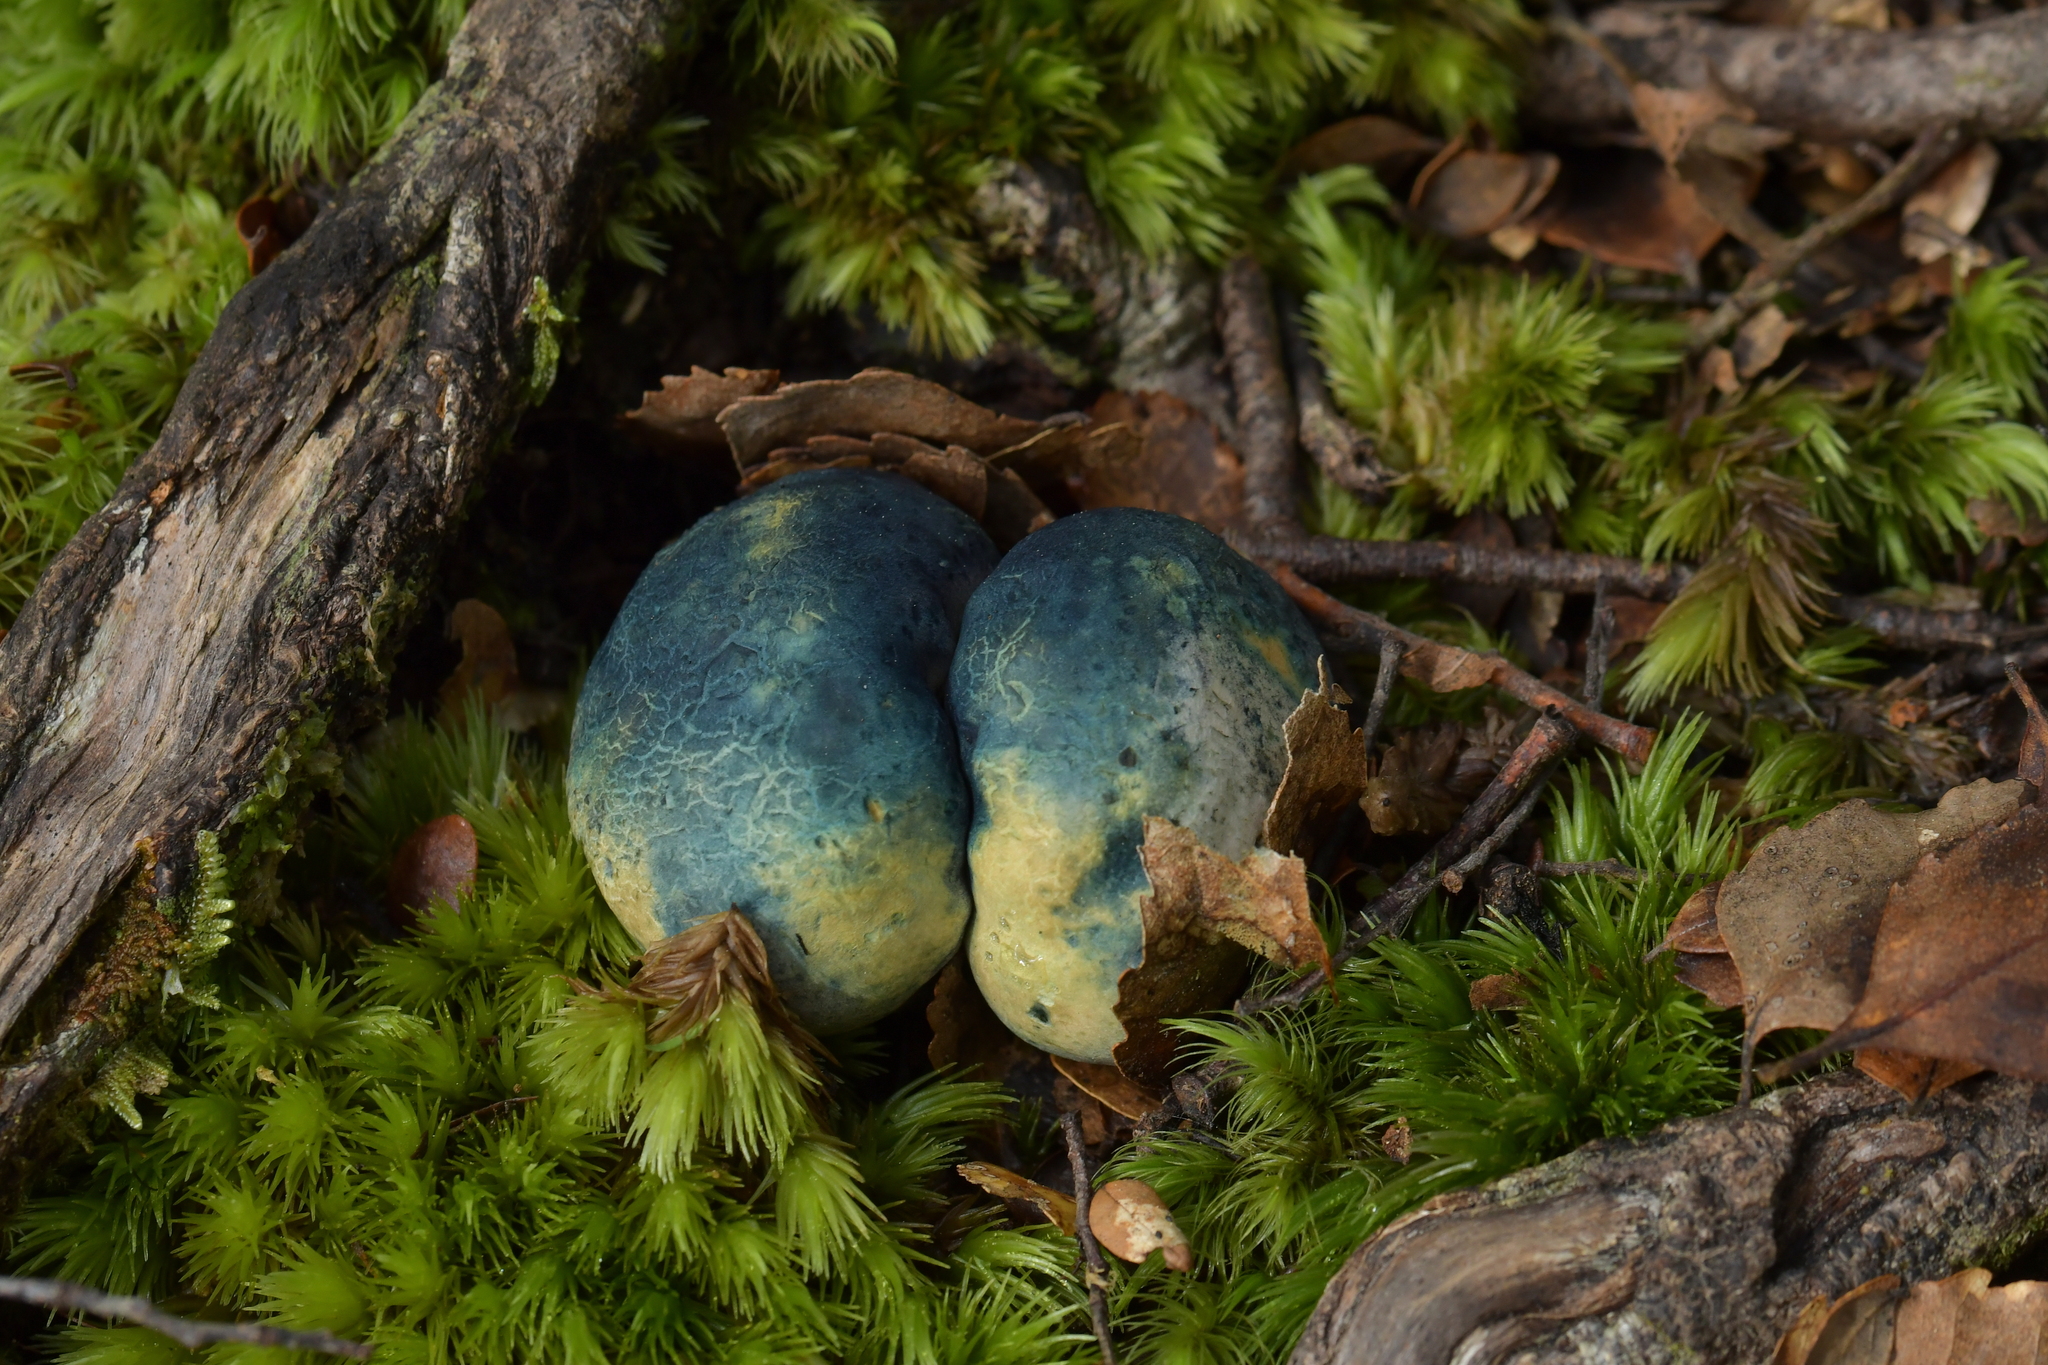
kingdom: Fungi
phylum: Basidiomycota
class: Agaricomycetes
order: Boletales
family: Boletaceae
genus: Leccinum
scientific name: Leccinum pachyderme
